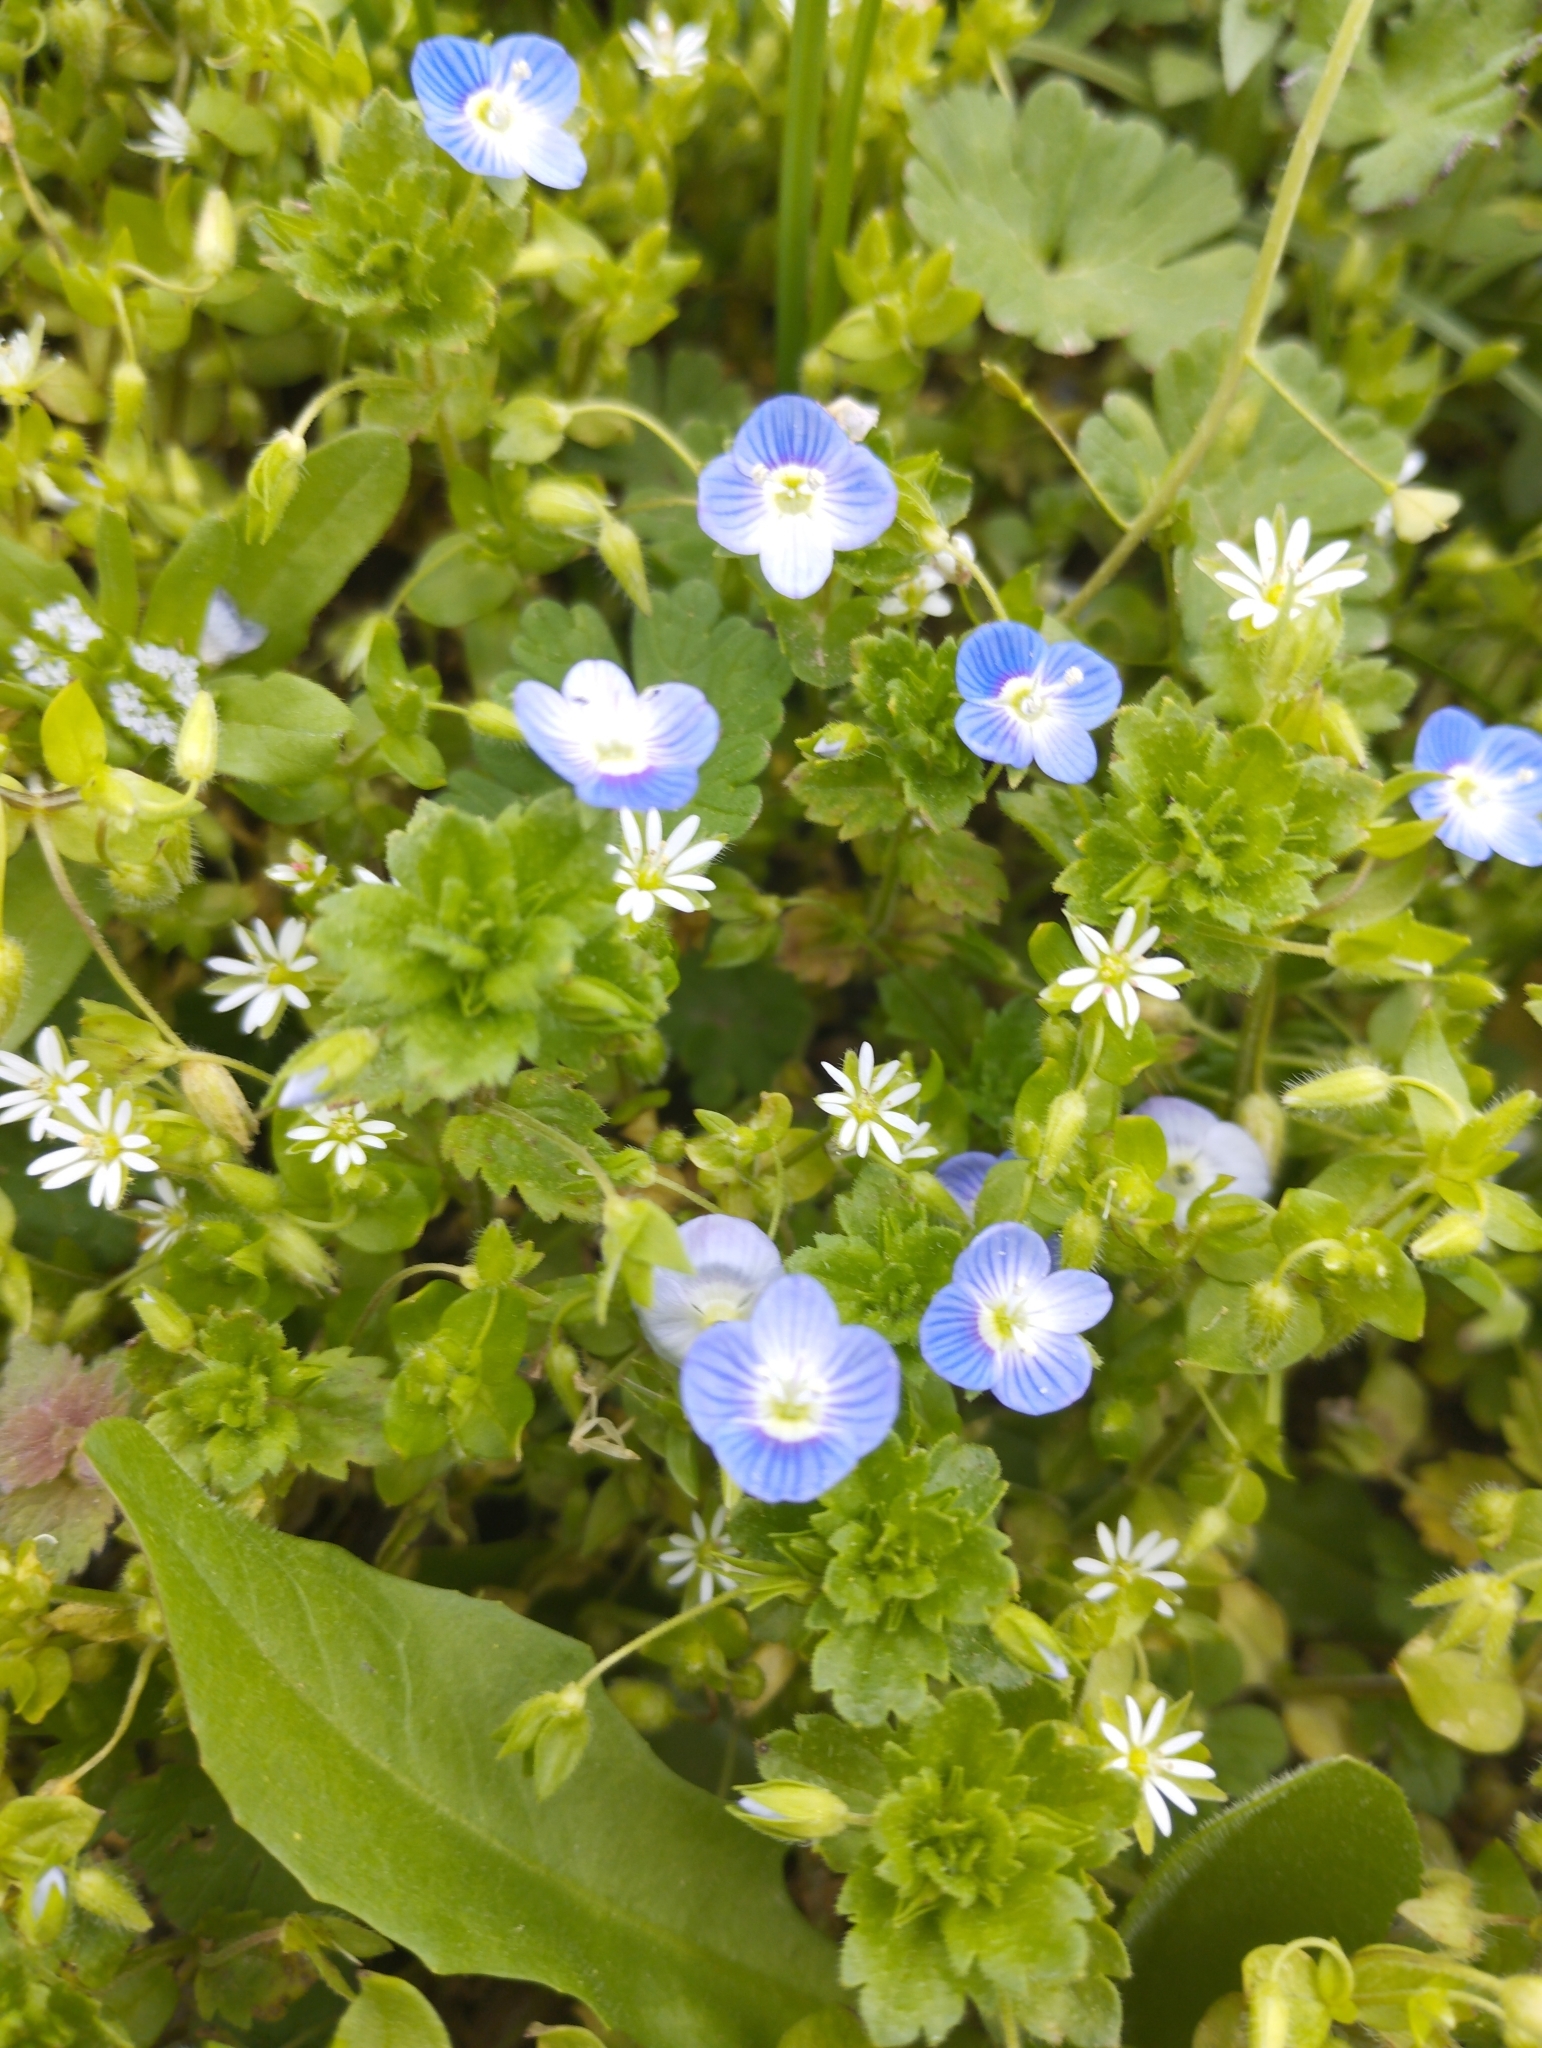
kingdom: Plantae
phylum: Tracheophyta
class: Magnoliopsida
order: Lamiales
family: Plantaginaceae
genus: Veronica
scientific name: Veronica persica
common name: Common field-speedwell
